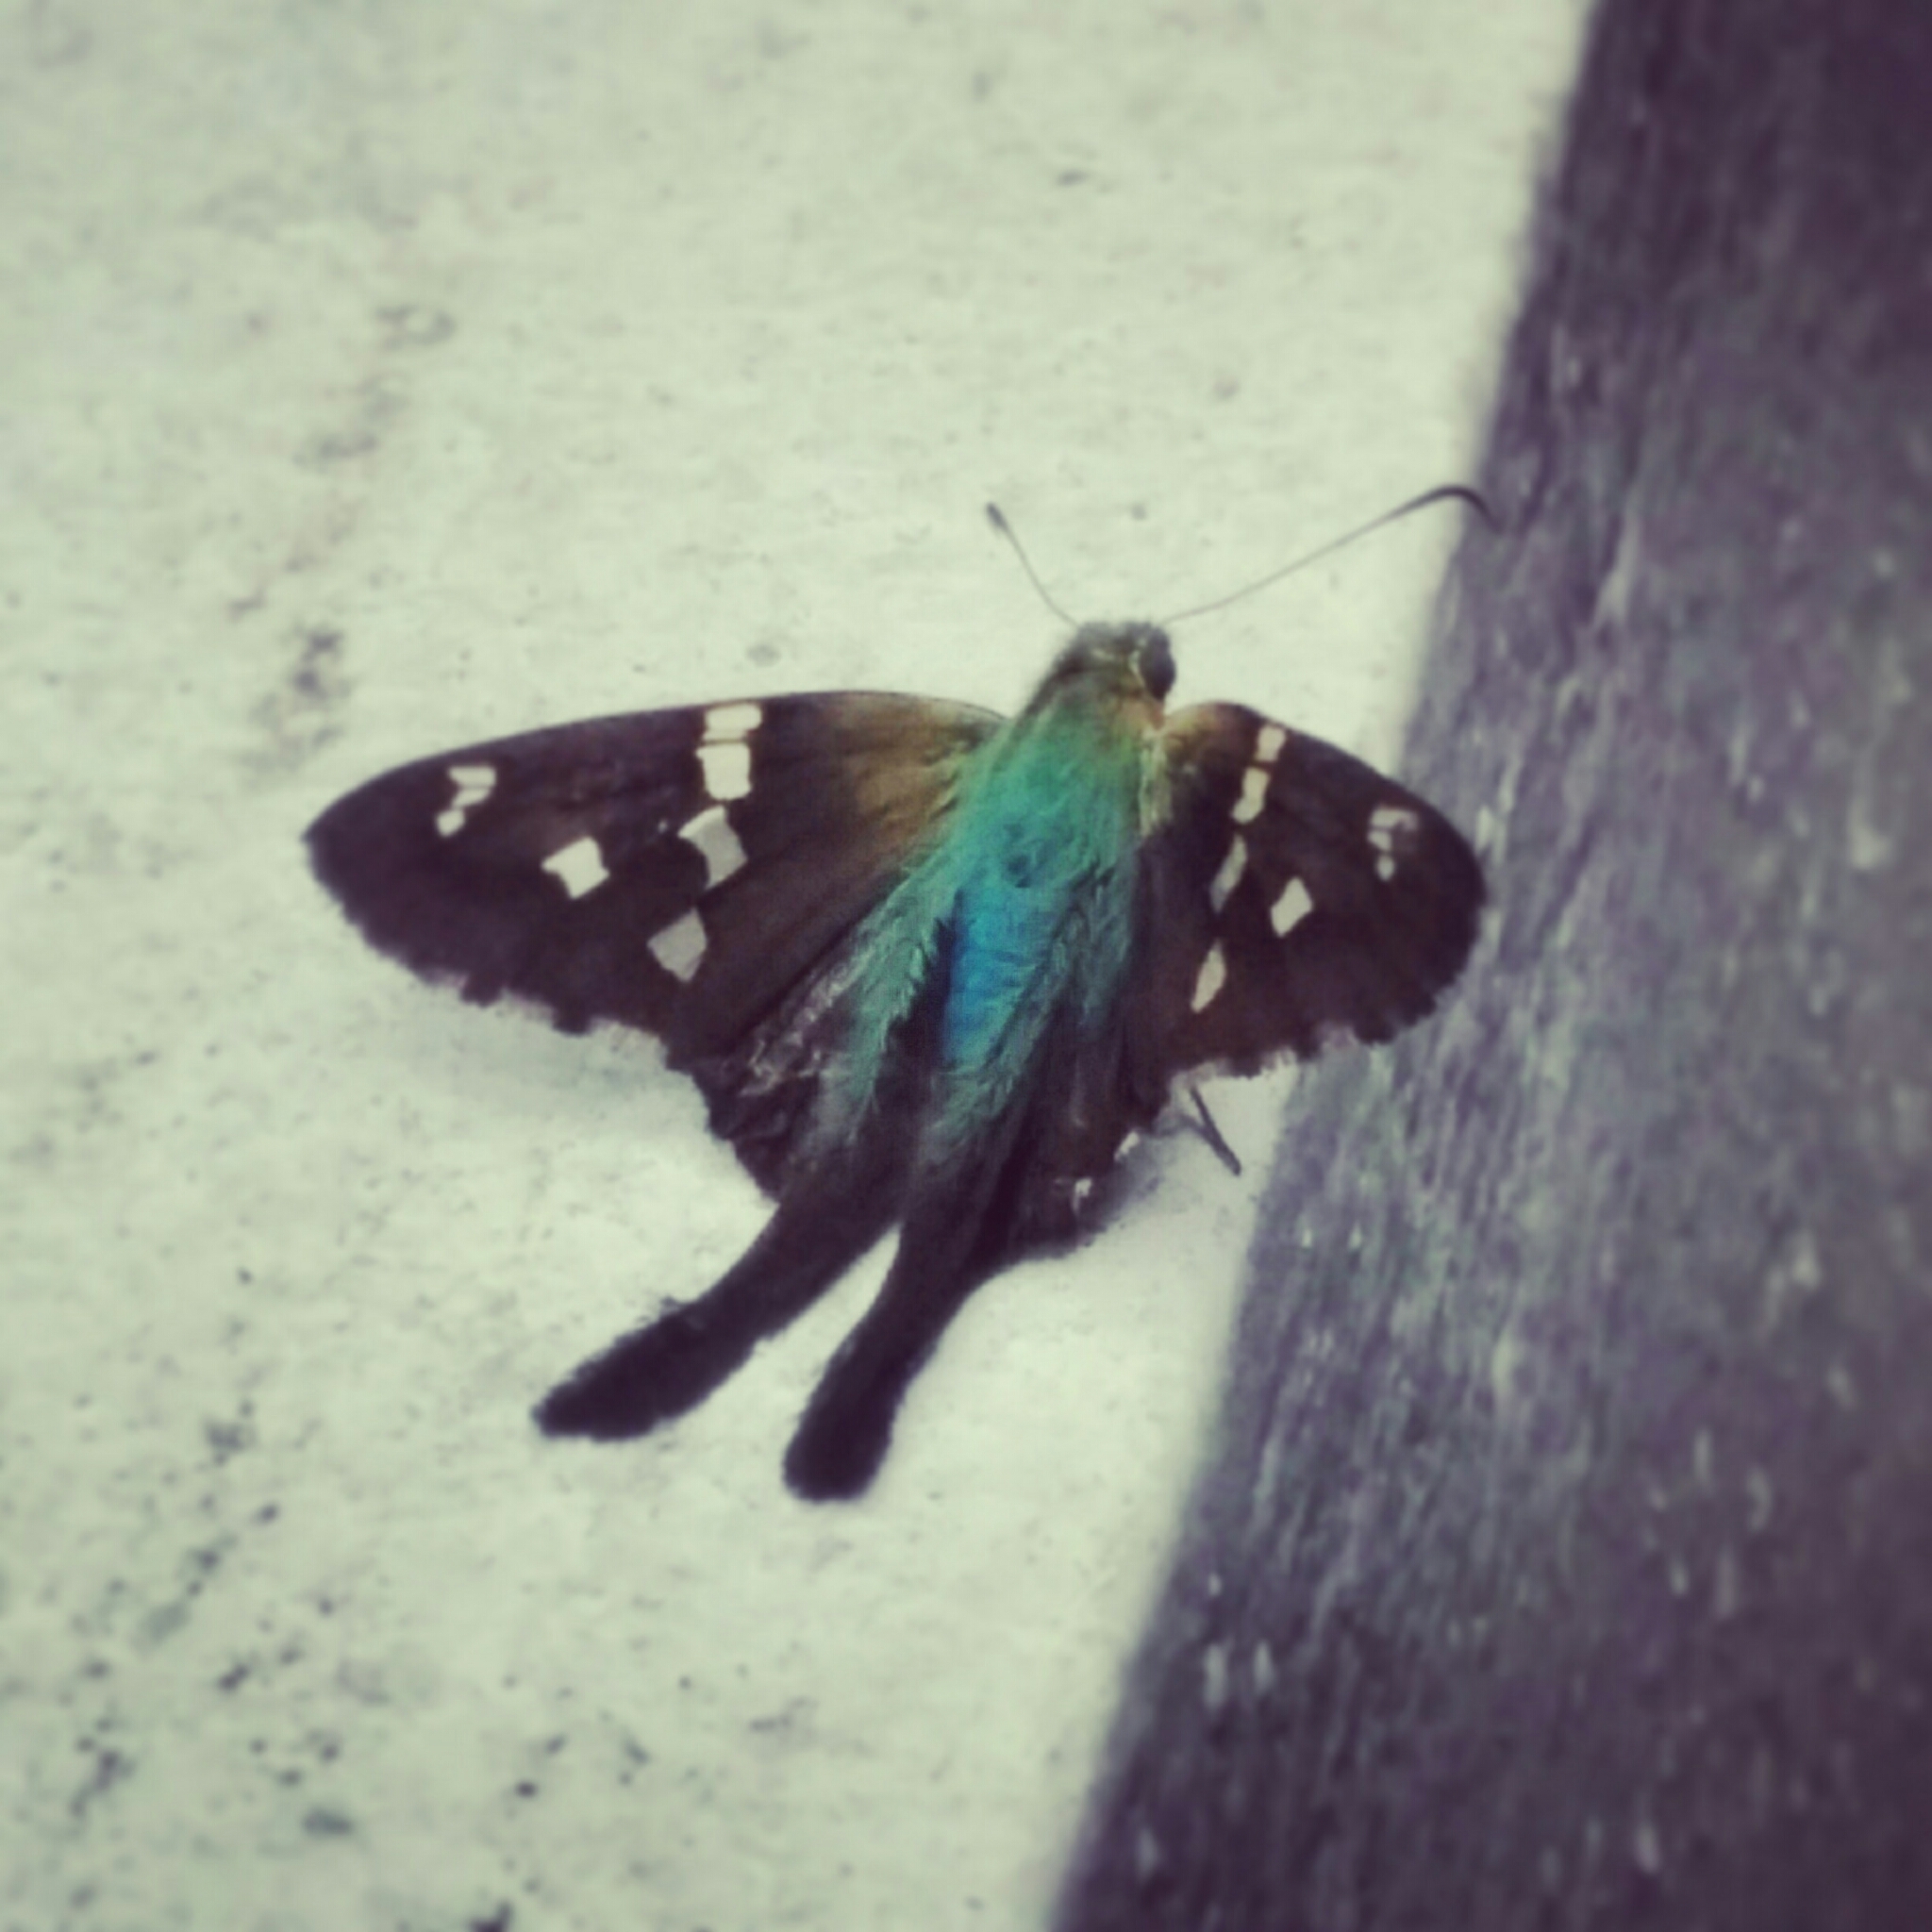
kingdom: Animalia
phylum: Arthropoda
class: Insecta
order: Lepidoptera
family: Hesperiidae
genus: Urbanus
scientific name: Urbanus esmeraldus
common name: Esmeralda longtail
